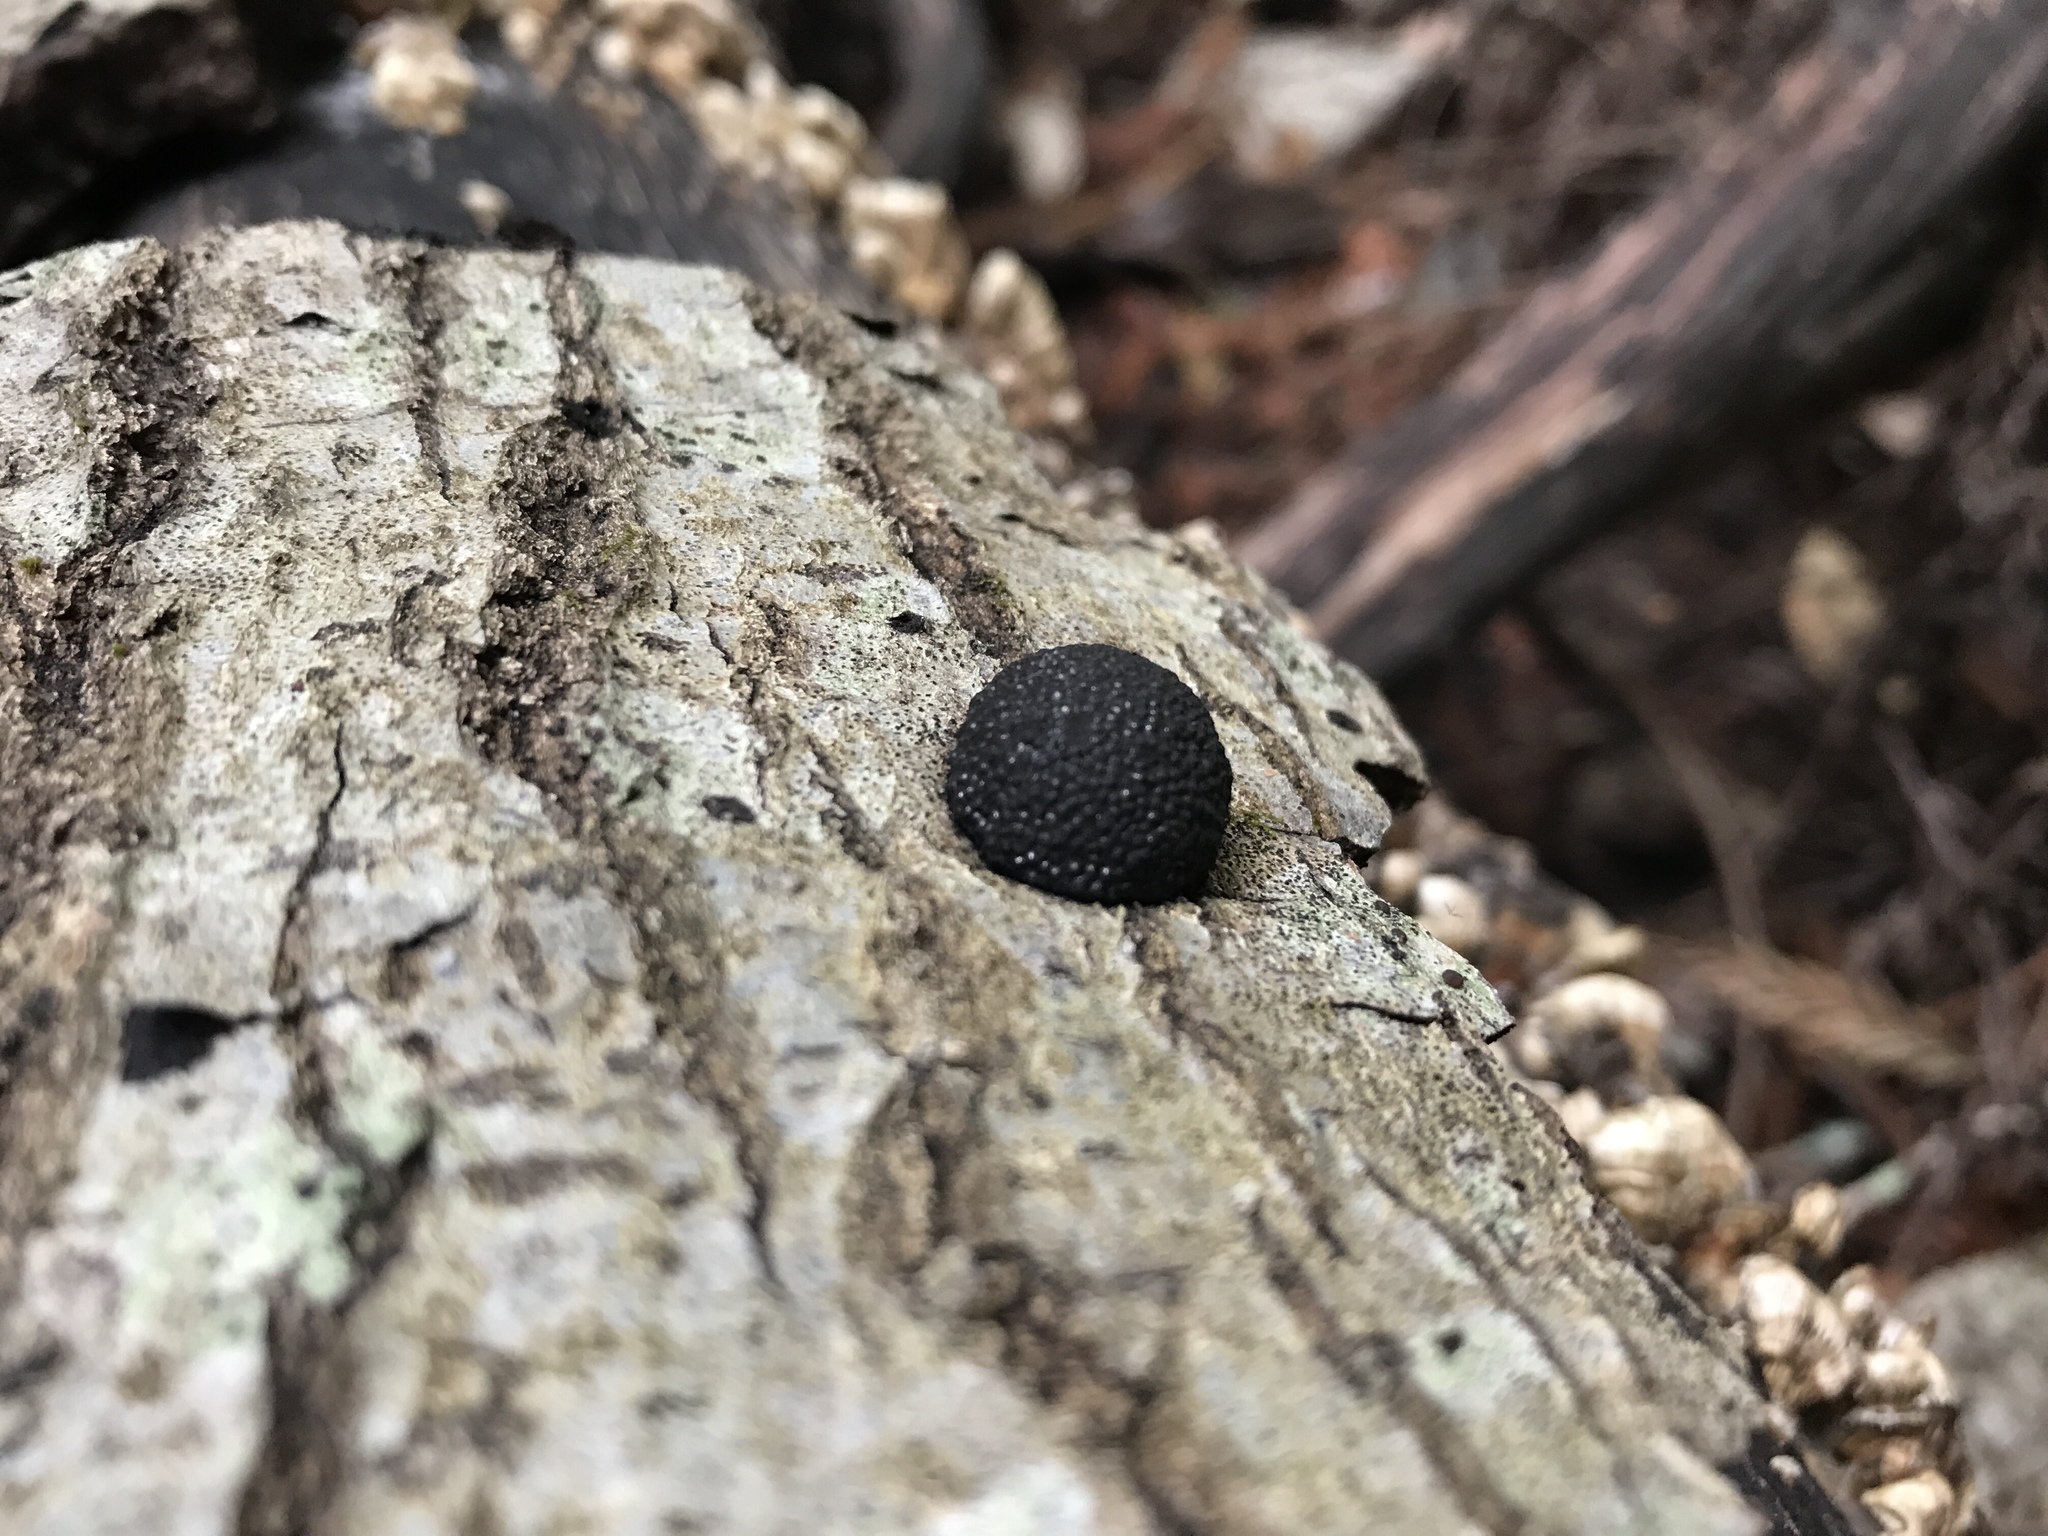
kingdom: Fungi
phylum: Ascomycota
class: Sordariomycetes
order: Xylariales
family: Hypoxylaceae
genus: Annulohypoxylon
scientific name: Annulohypoxylon thouarsianum
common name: Cramp balls
